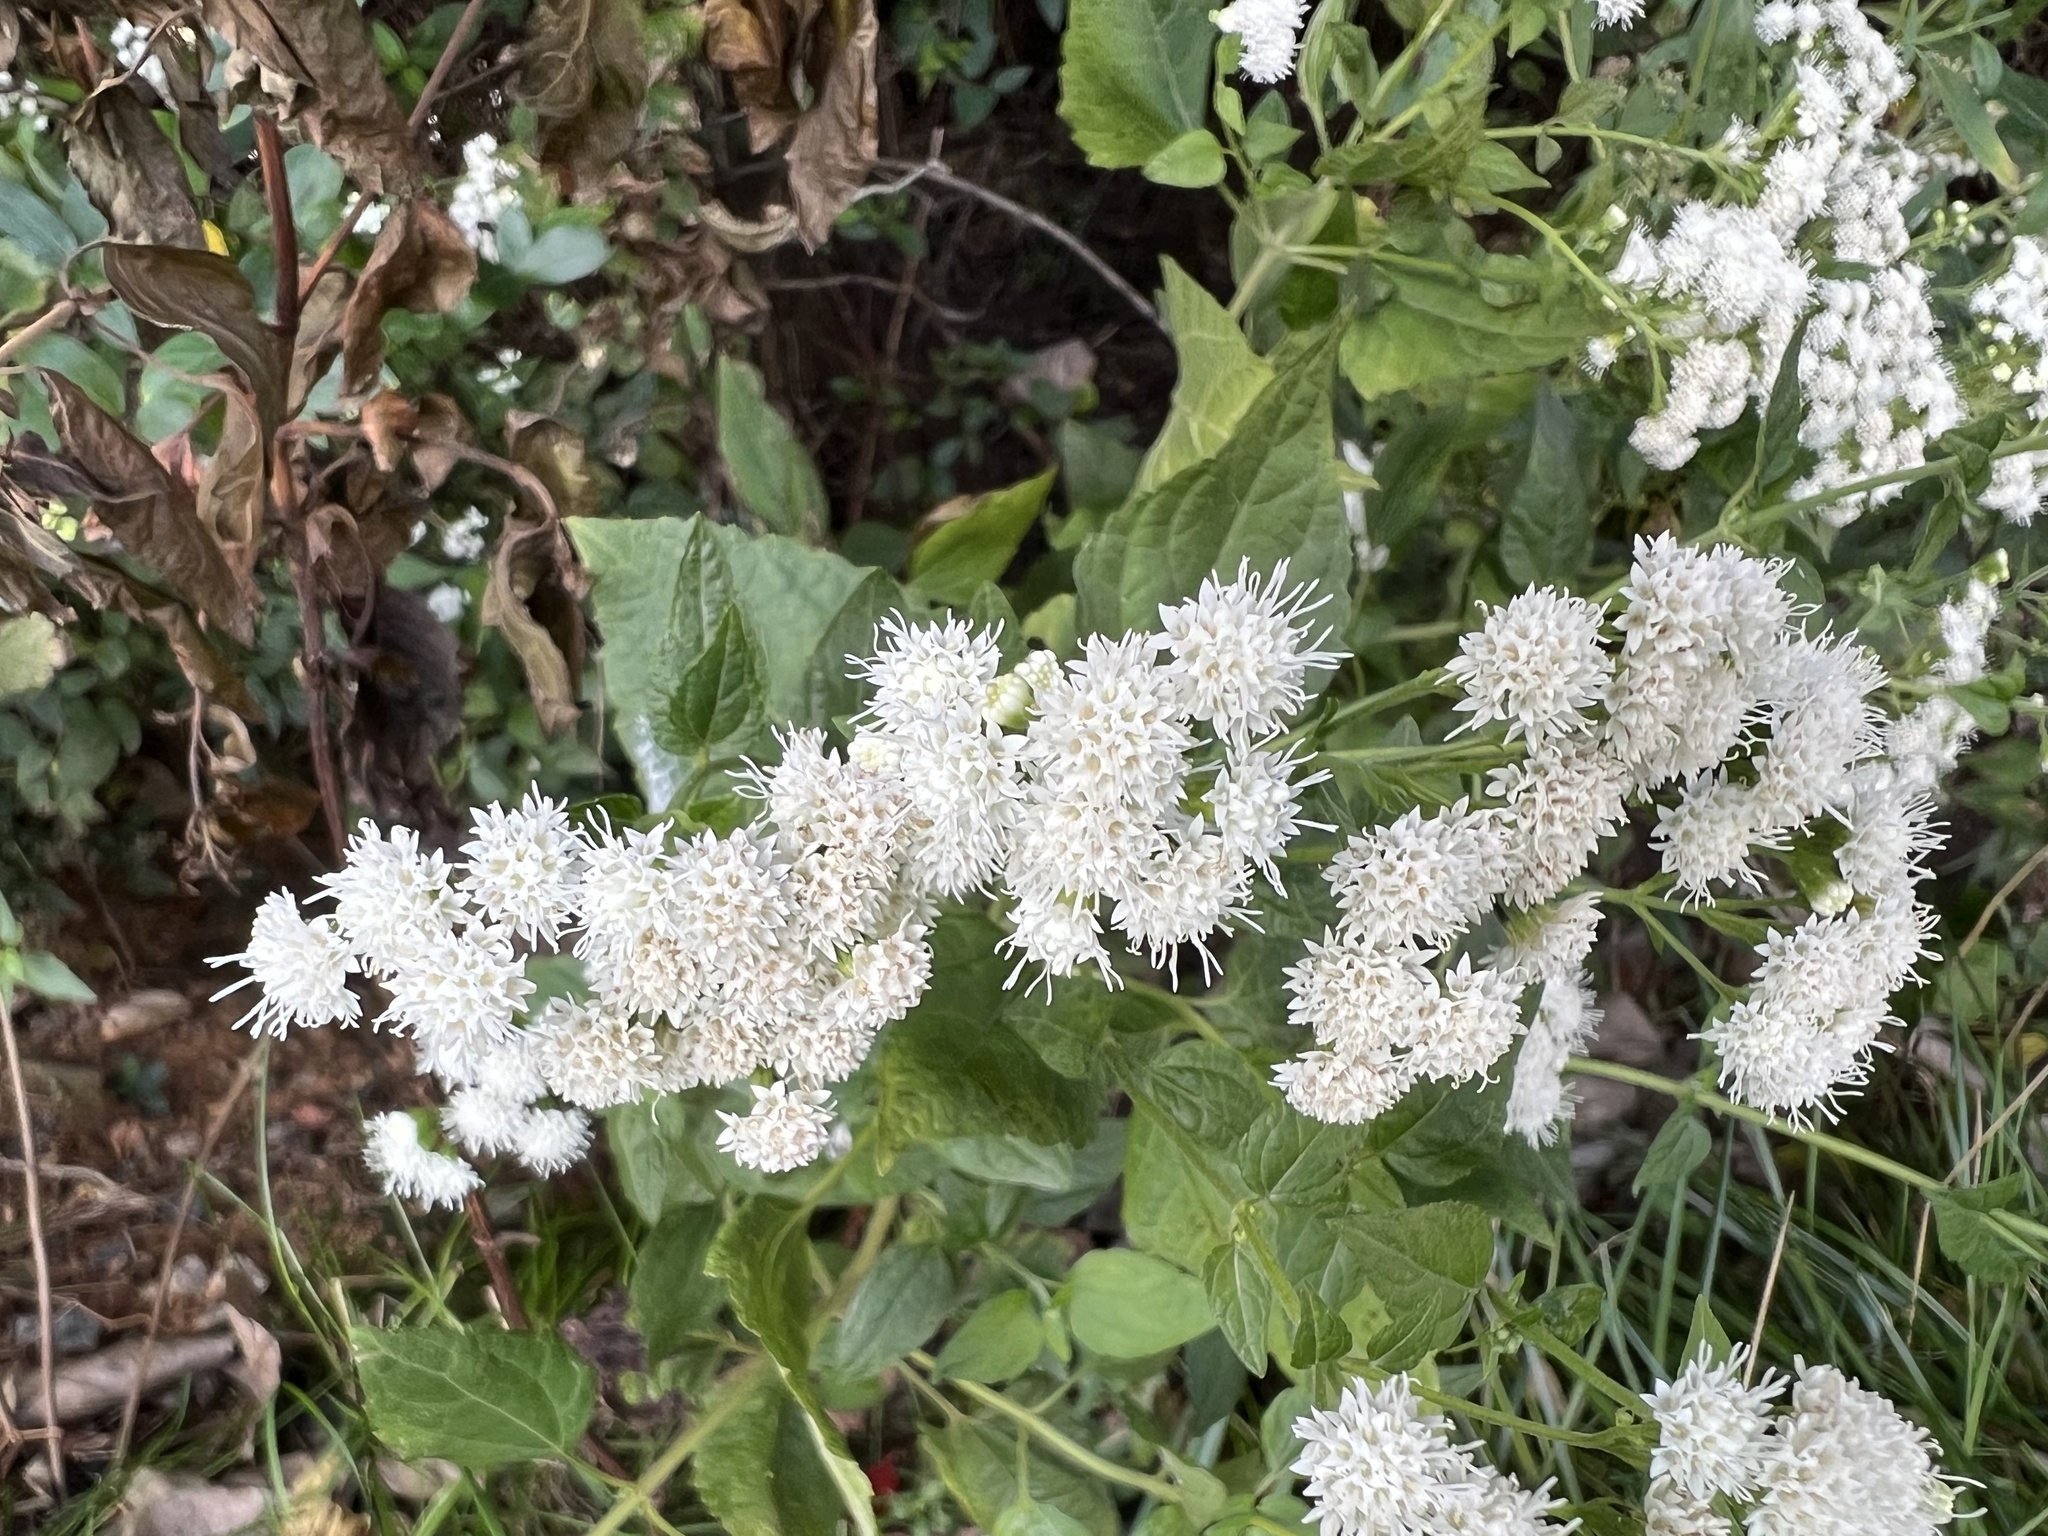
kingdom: Plantae
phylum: Tracheophyta
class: Magnoliopsida
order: Asterales
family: Asteraceae
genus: Ageratina
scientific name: Ageratina altissima
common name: White snakeroot
